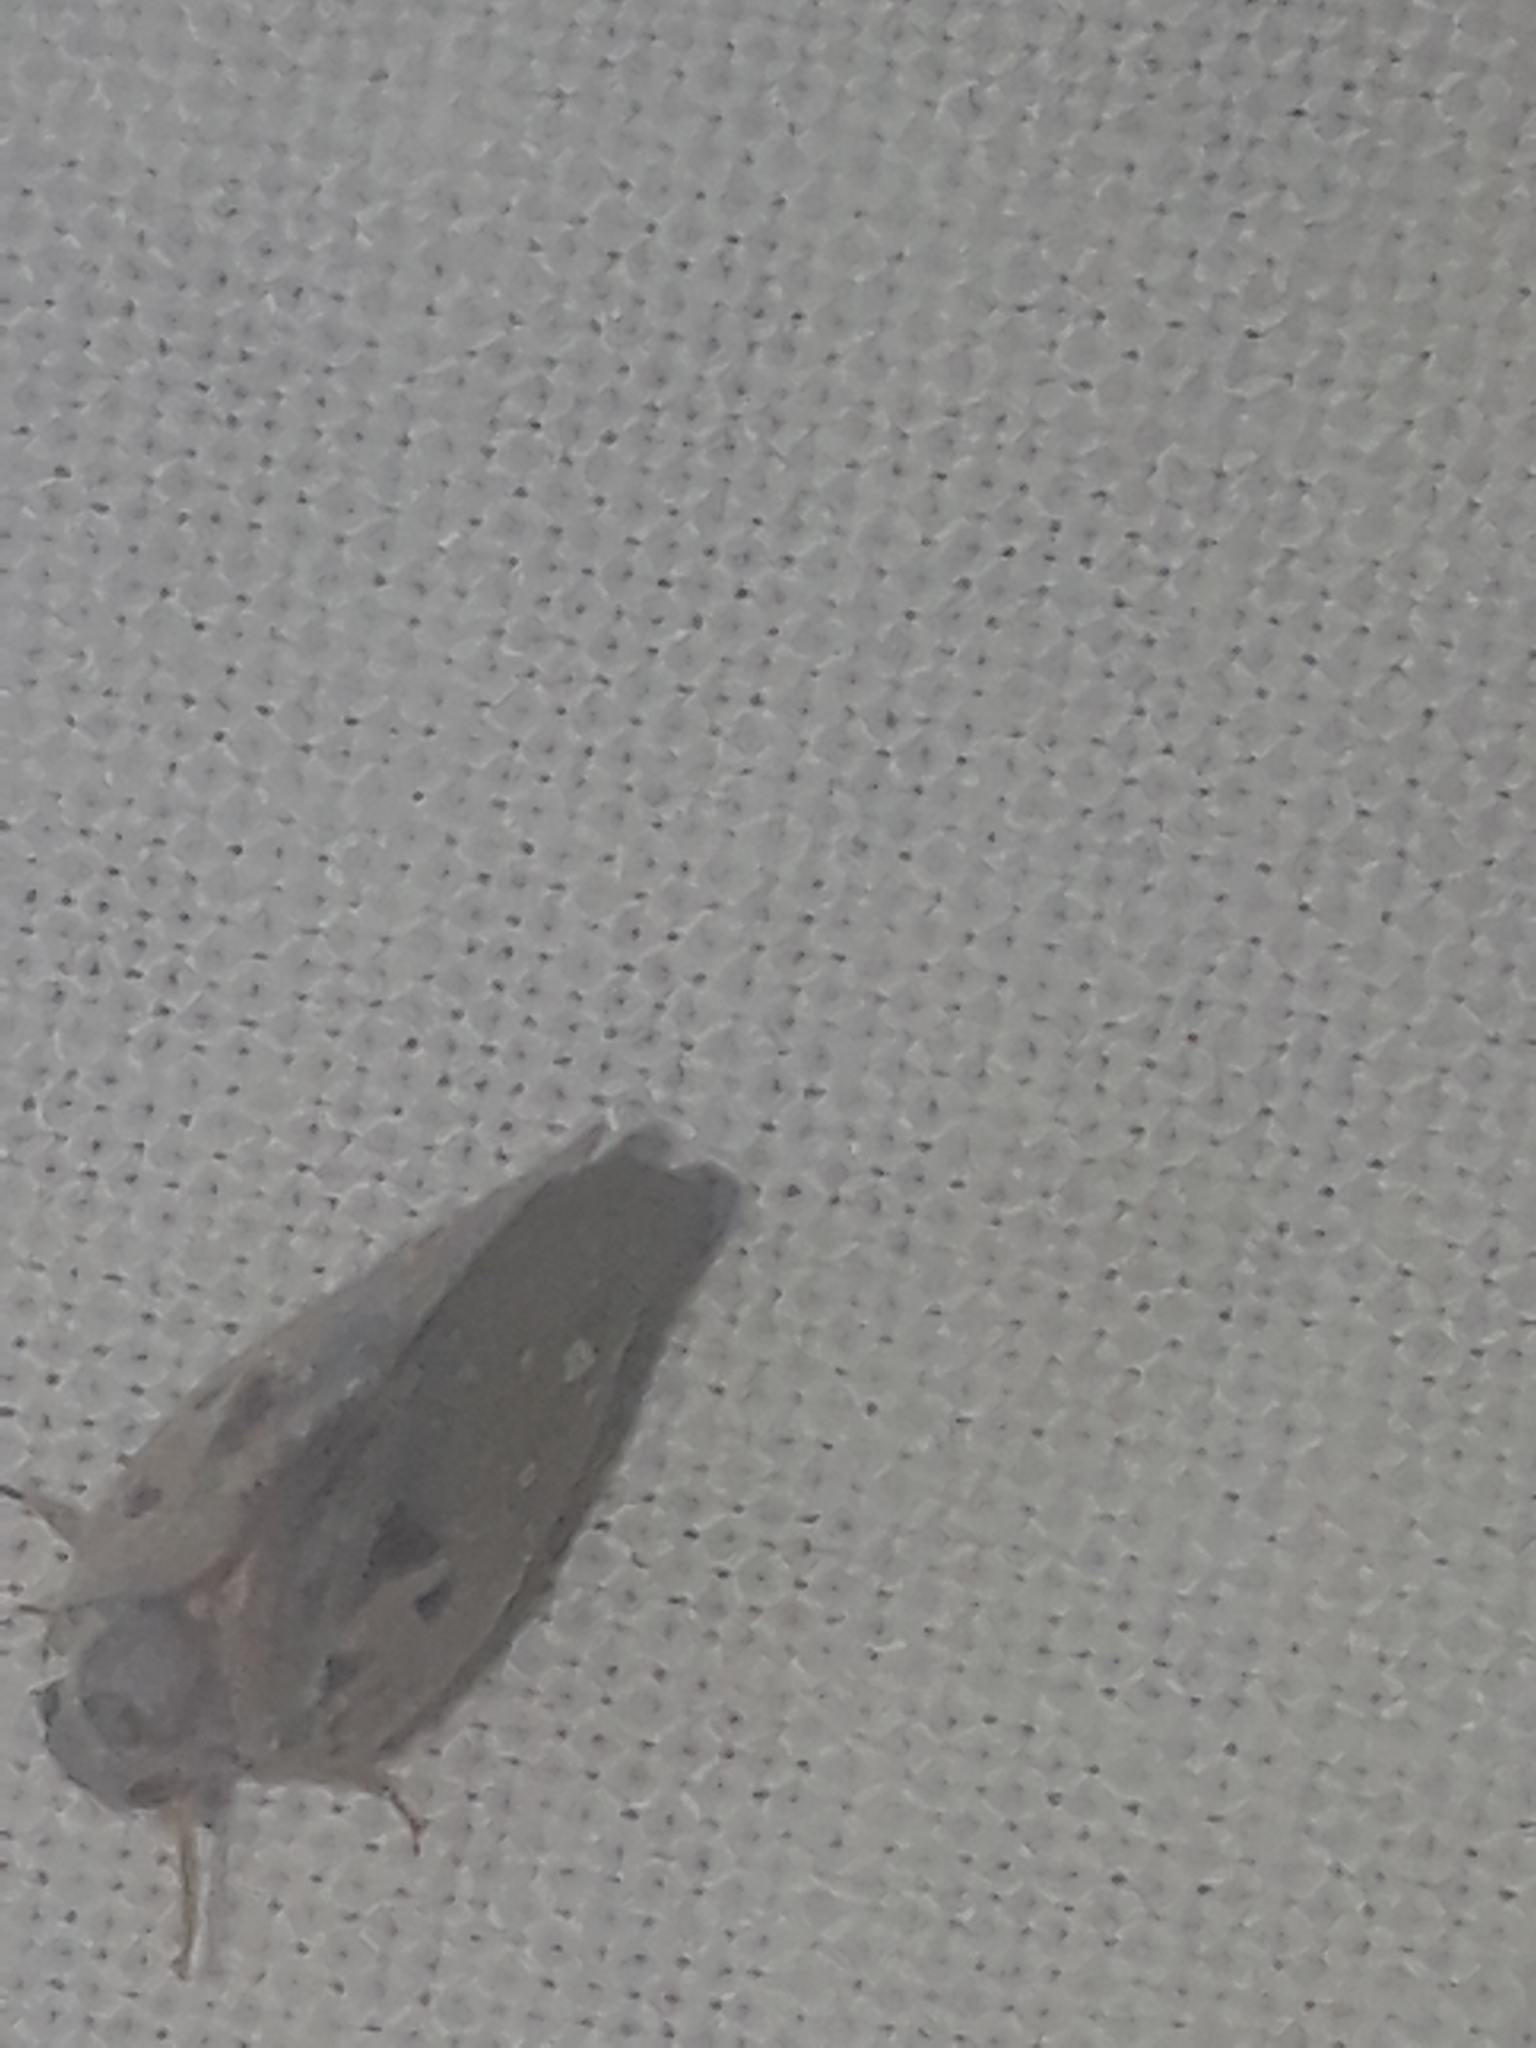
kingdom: Animalia
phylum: Arthropoda
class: Insecta
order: Hemiptera
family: Flatidae
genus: Metcalfa
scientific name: Metcalfa pruinosa
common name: Citrus flatid planthopper
